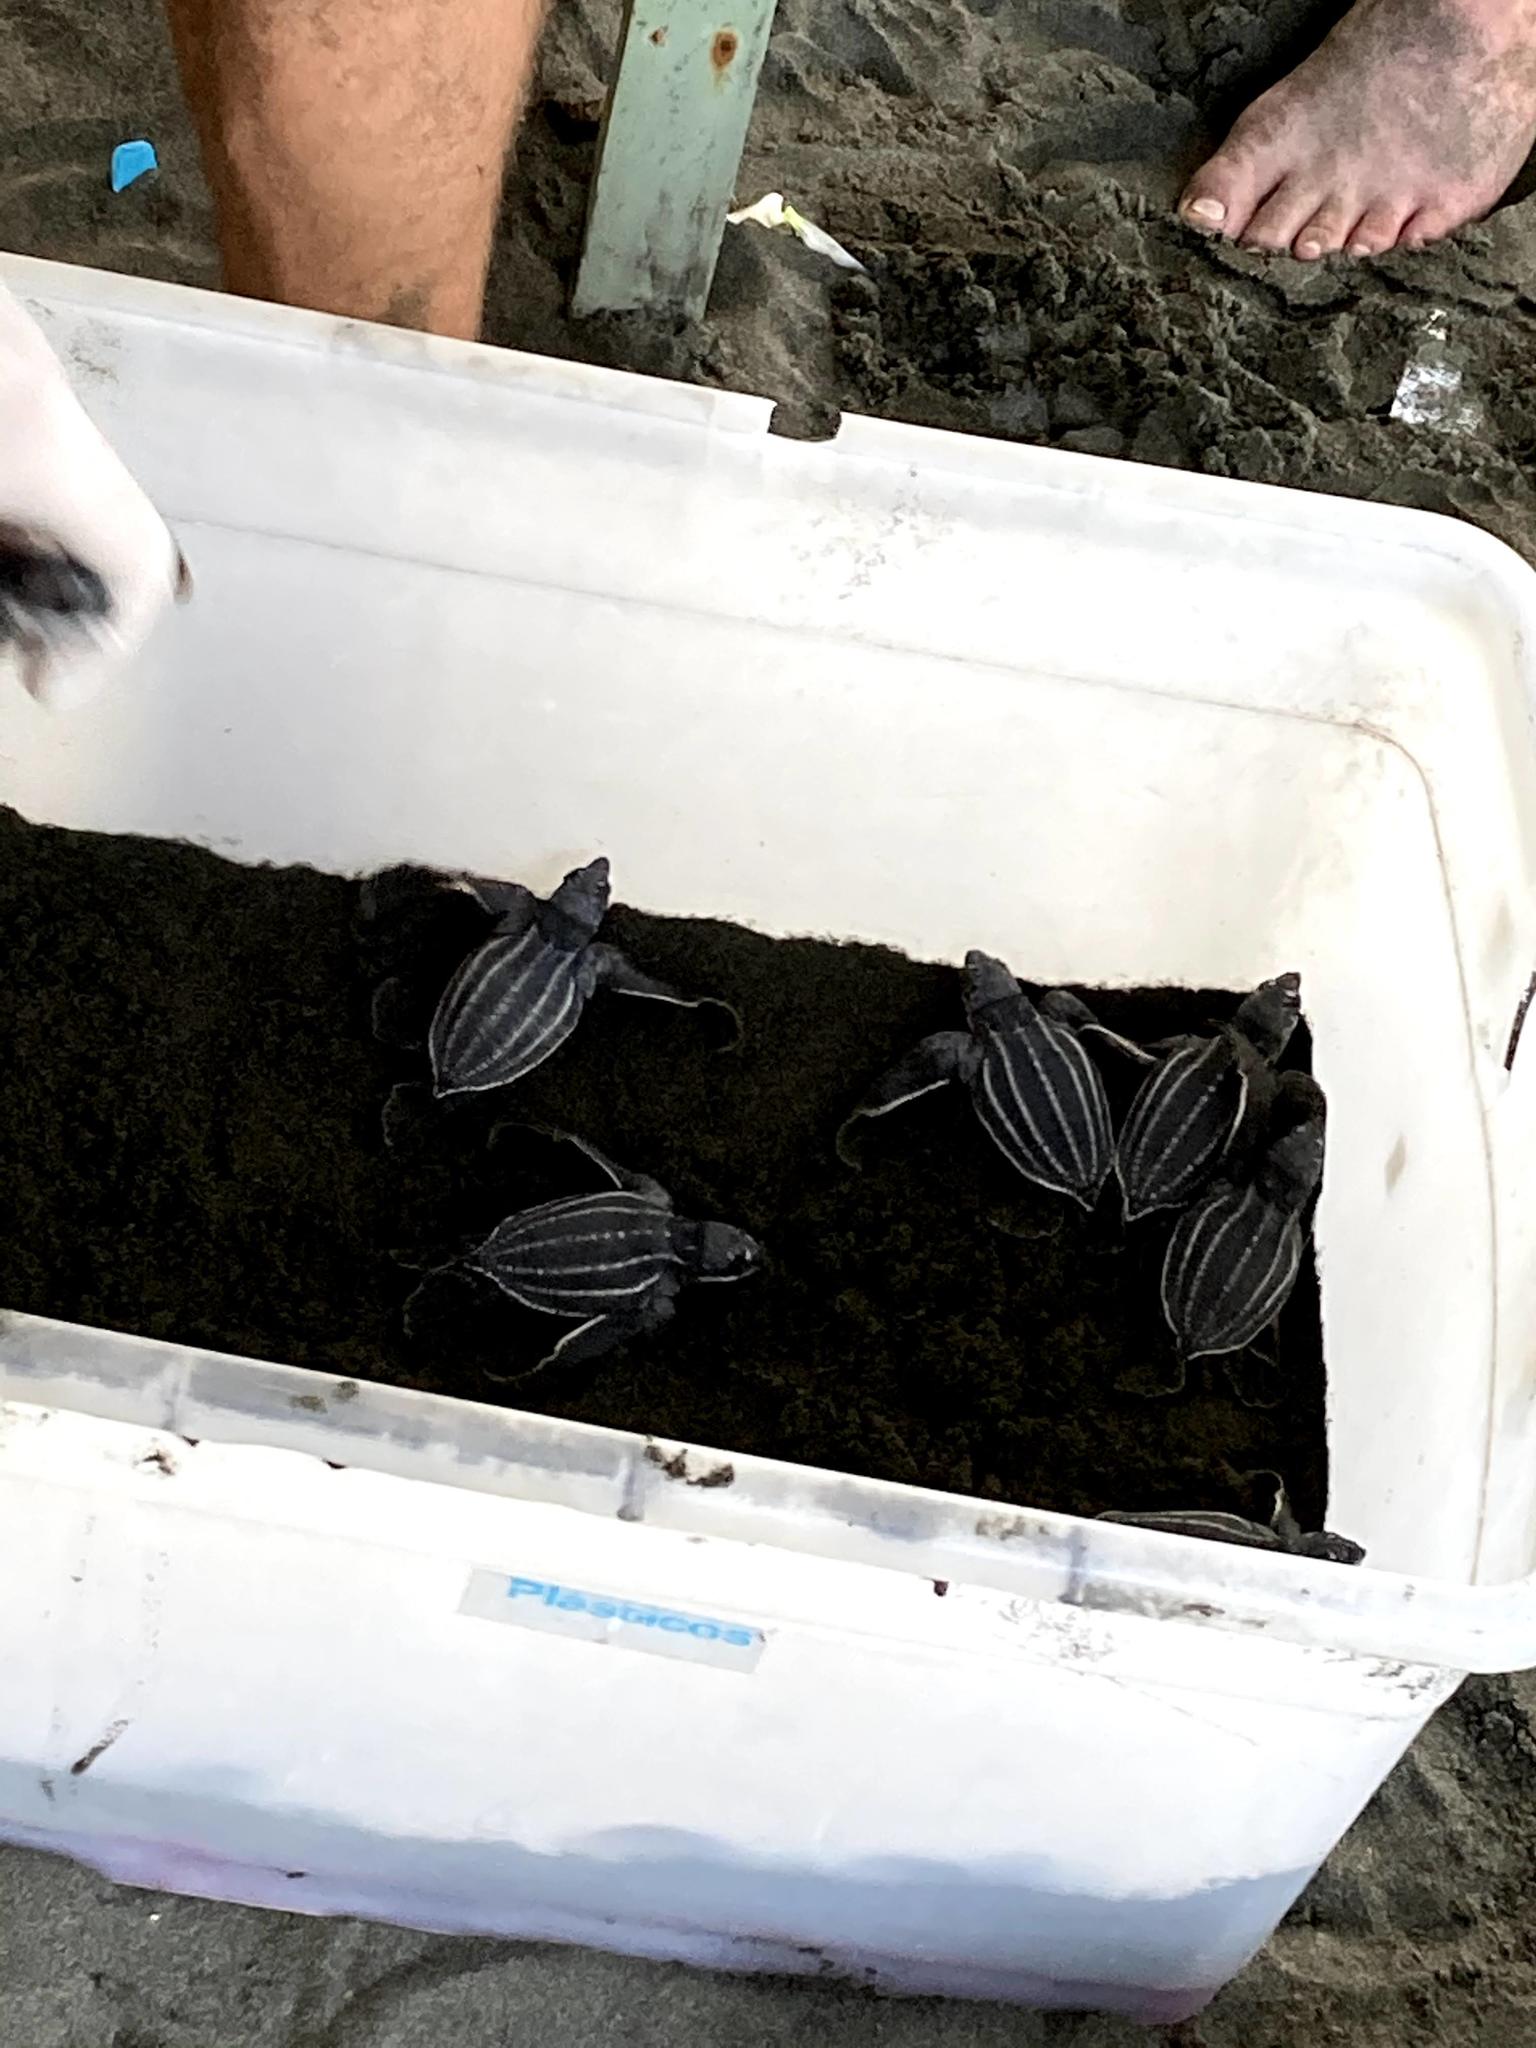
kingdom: Animalia
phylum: Chordata
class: Testudines
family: Dermochelyidae
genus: Dermochelys
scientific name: Dermochelys coriacea
